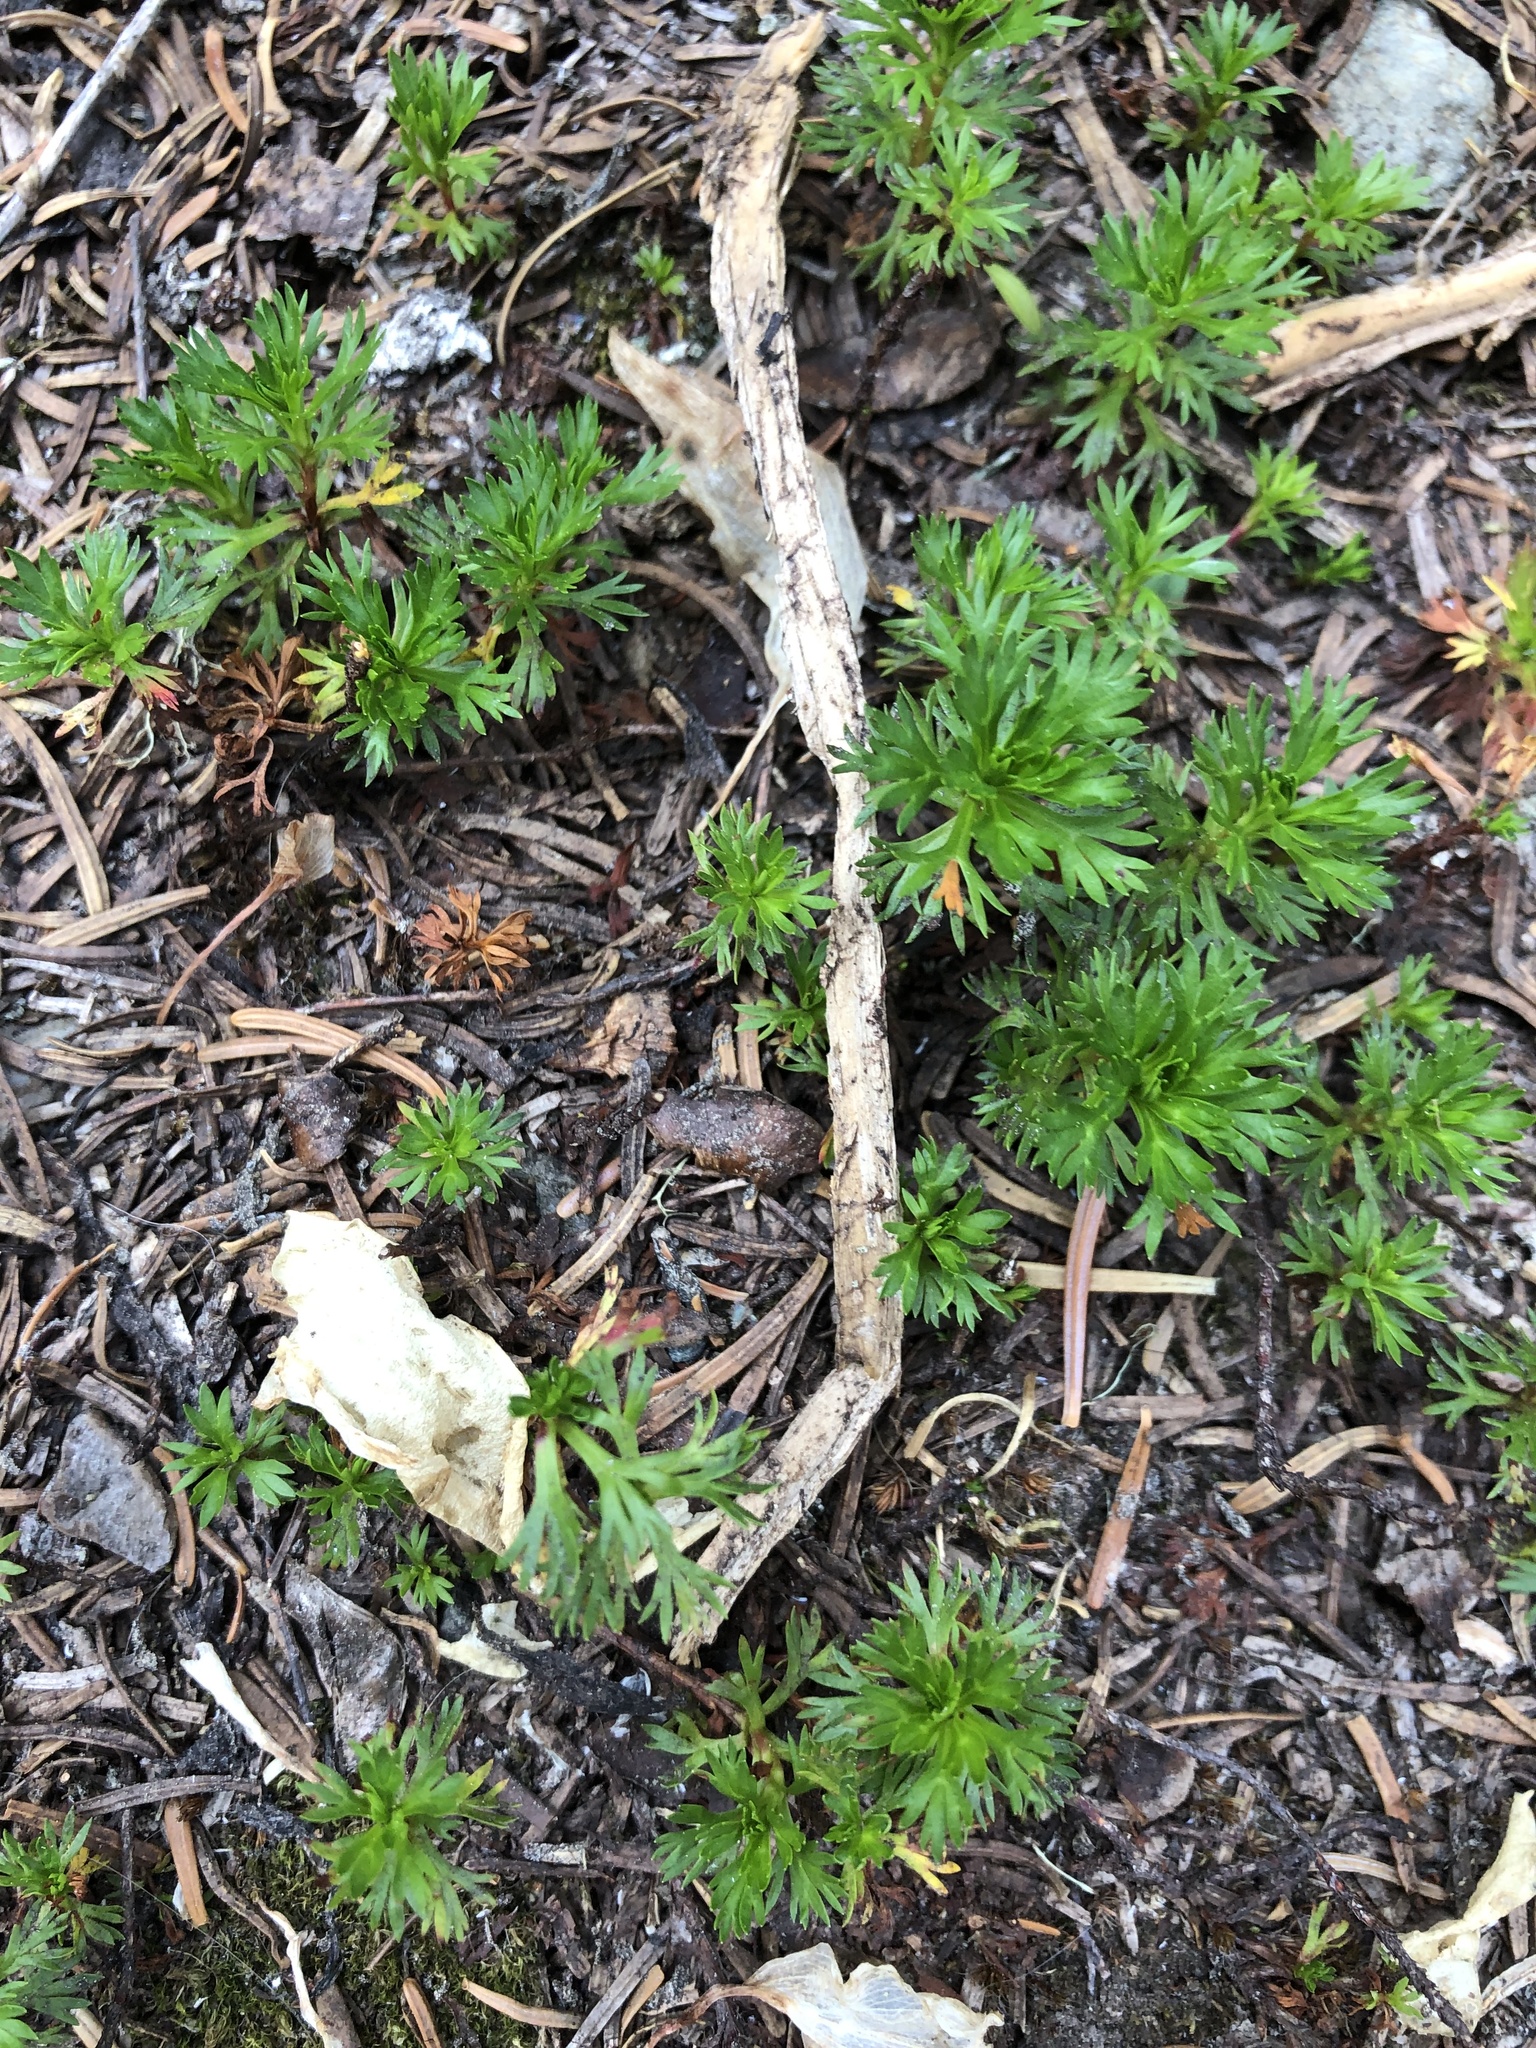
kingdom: Plantae
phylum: Tracheophyta
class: Magnoliopsida
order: Rosales
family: Rosaceae
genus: Luetkea
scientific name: Luetkea pectinata
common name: Partridgefoot
